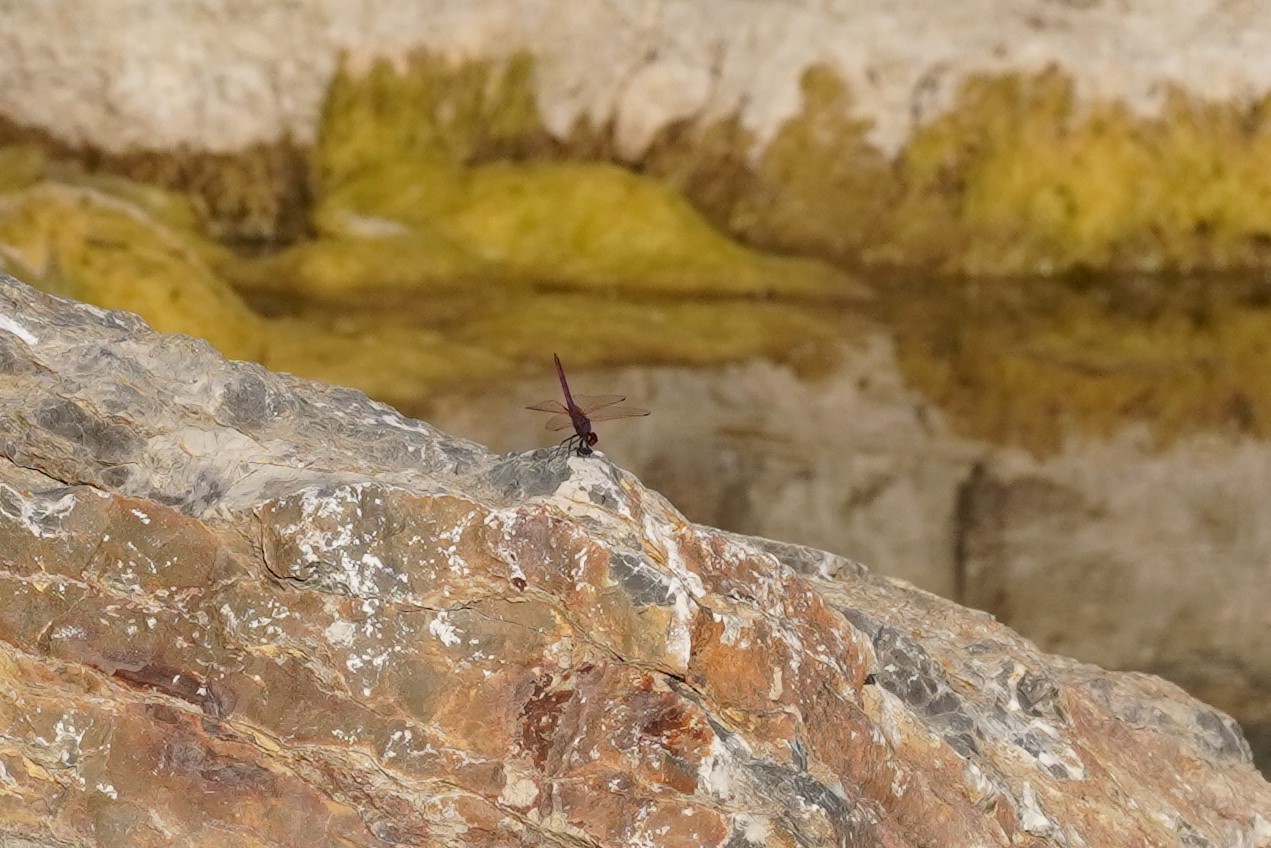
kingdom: Animalia
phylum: Arthropoda
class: Insecta
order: Odonata
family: Libellulidae
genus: Trithemis
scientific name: Trithemis annulata
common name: Violet dropwing
